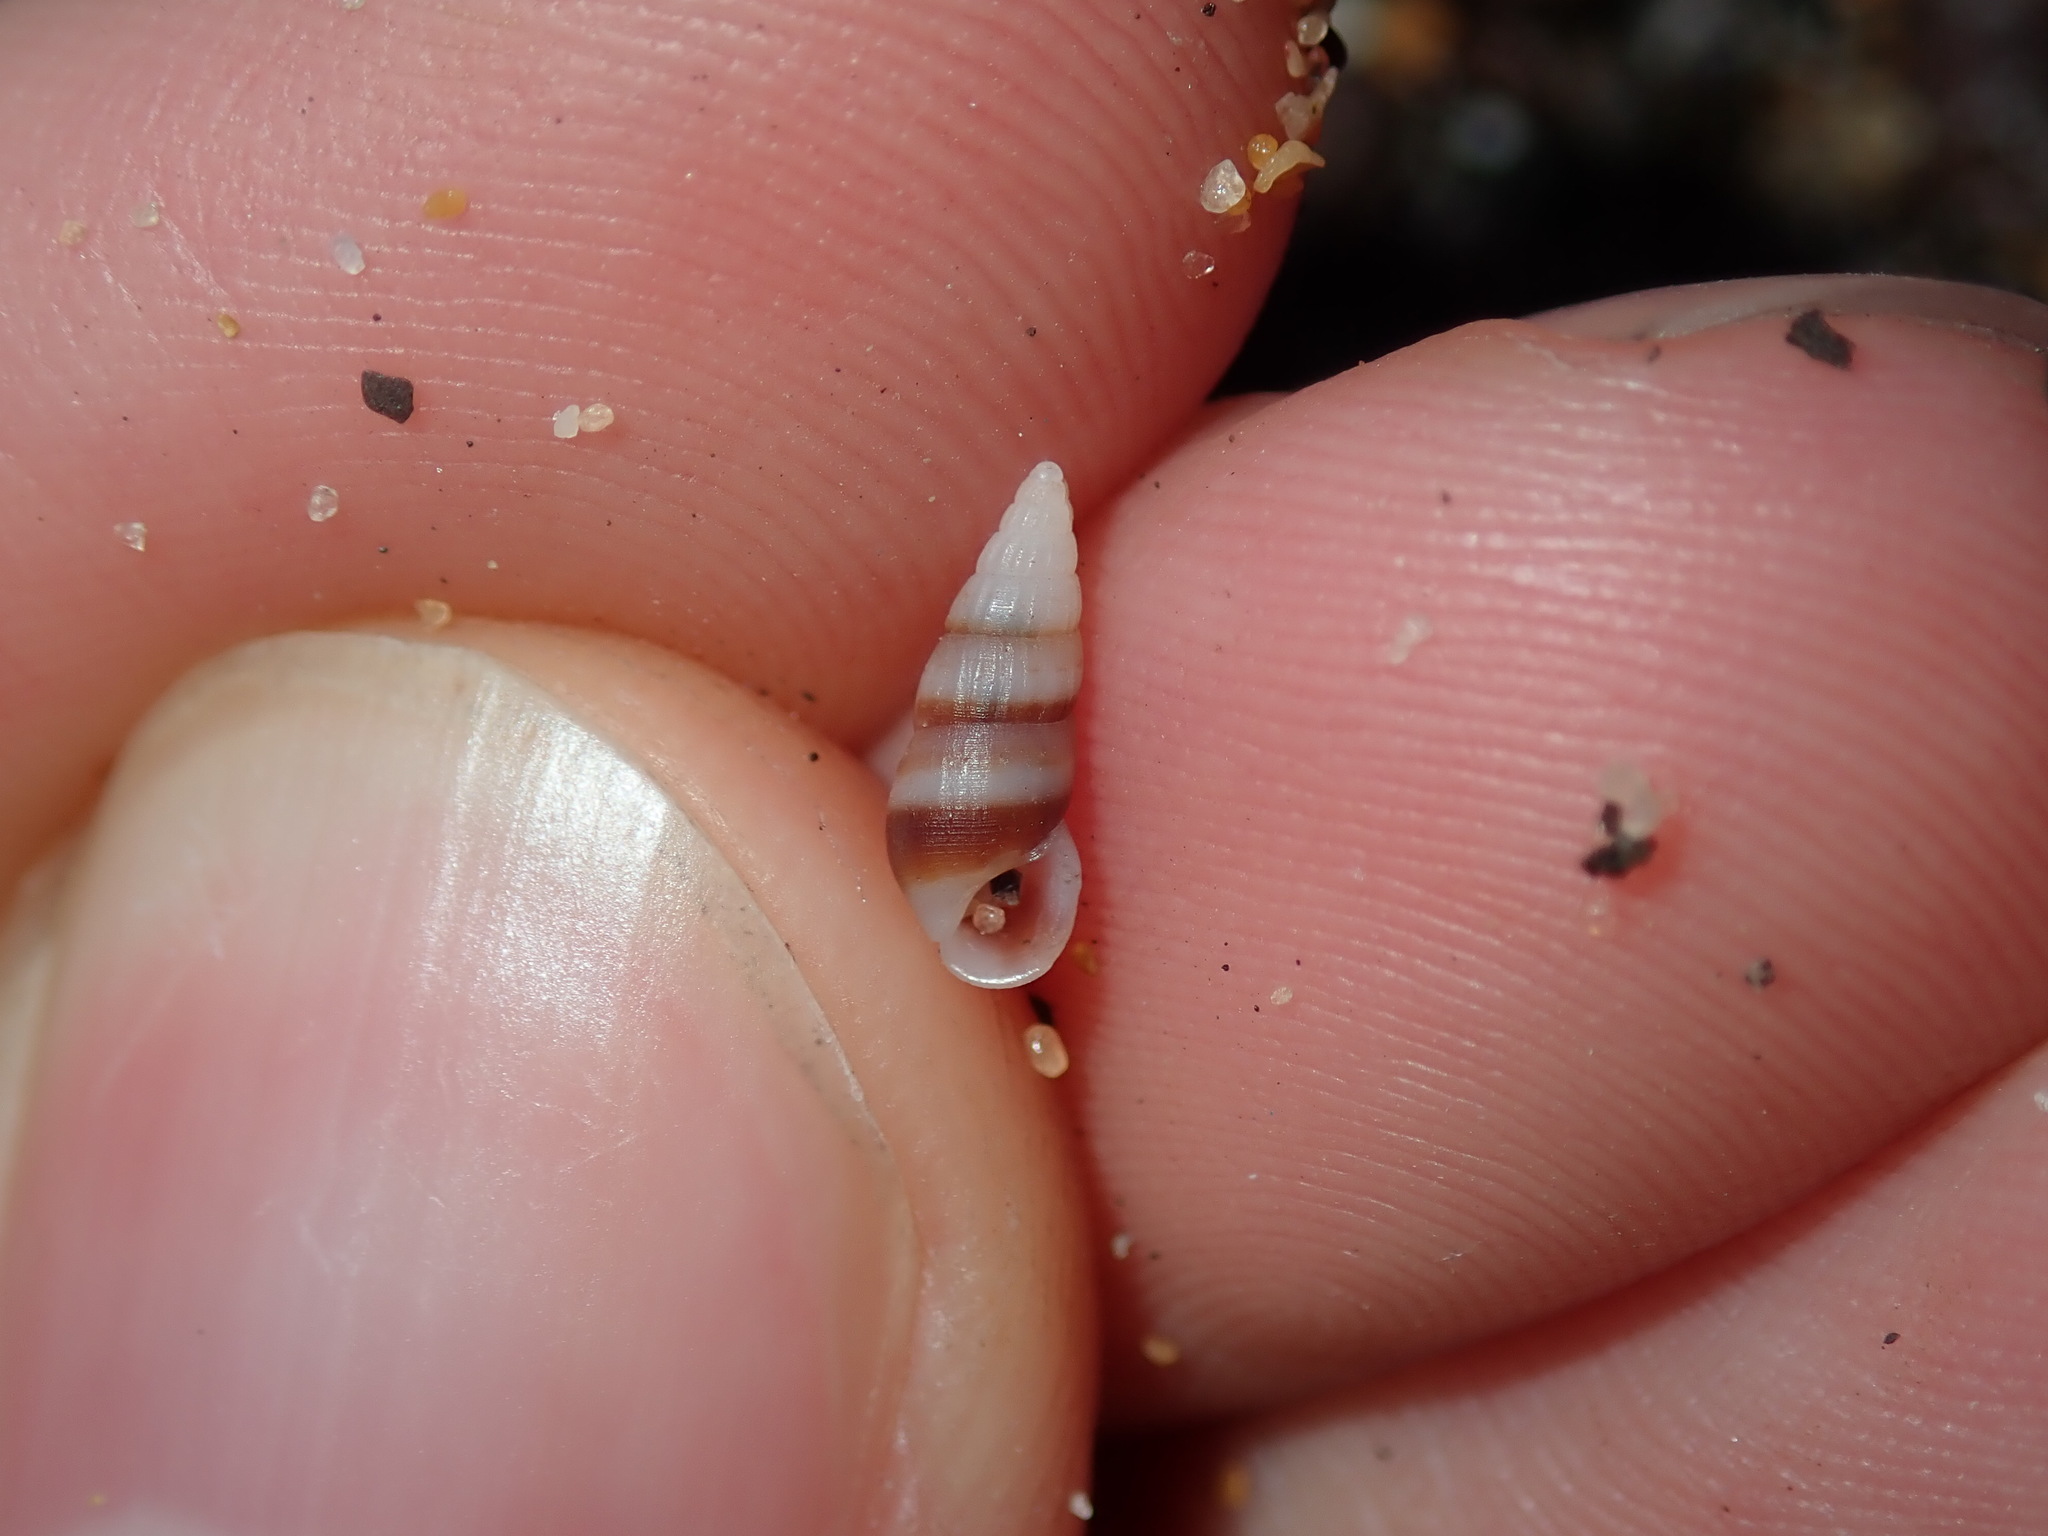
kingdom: Animalia
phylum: Mollusca
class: Gastropoda
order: Littorinimorpha
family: Rissoinidae
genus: Rissoina
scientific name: Rissoina fasciata
